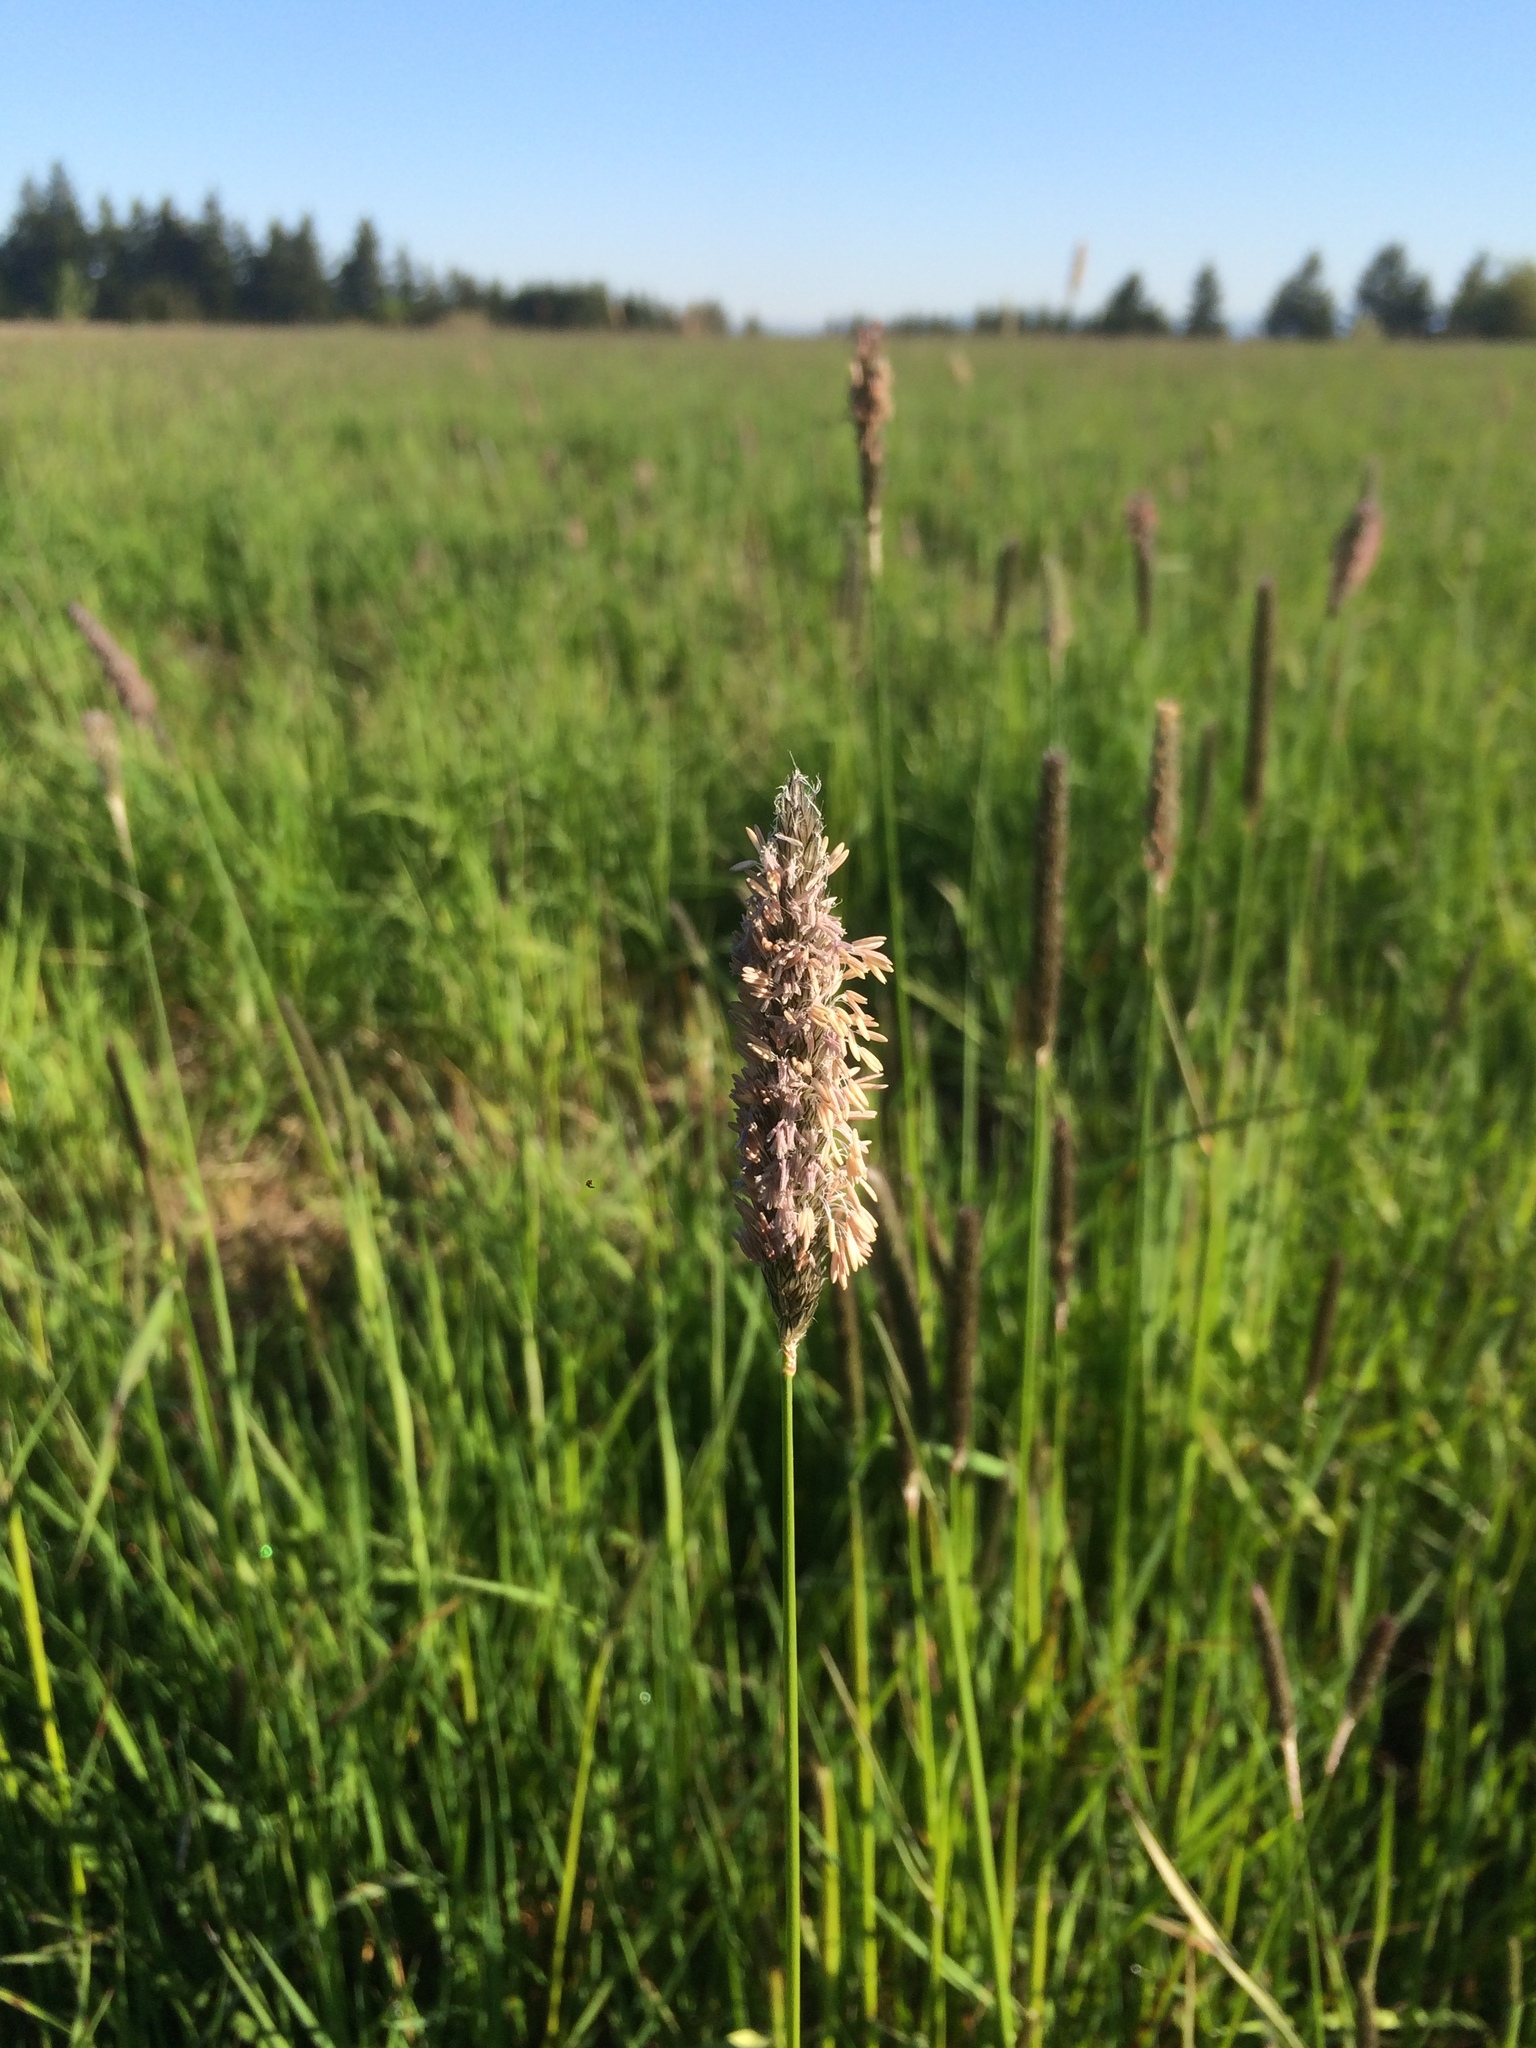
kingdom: Plantae
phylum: Tracheophyta
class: Liliopsida
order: Poales
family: Poaceae
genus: Alopecurus
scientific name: Alopecurus pratensis
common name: Meadow foxtail
